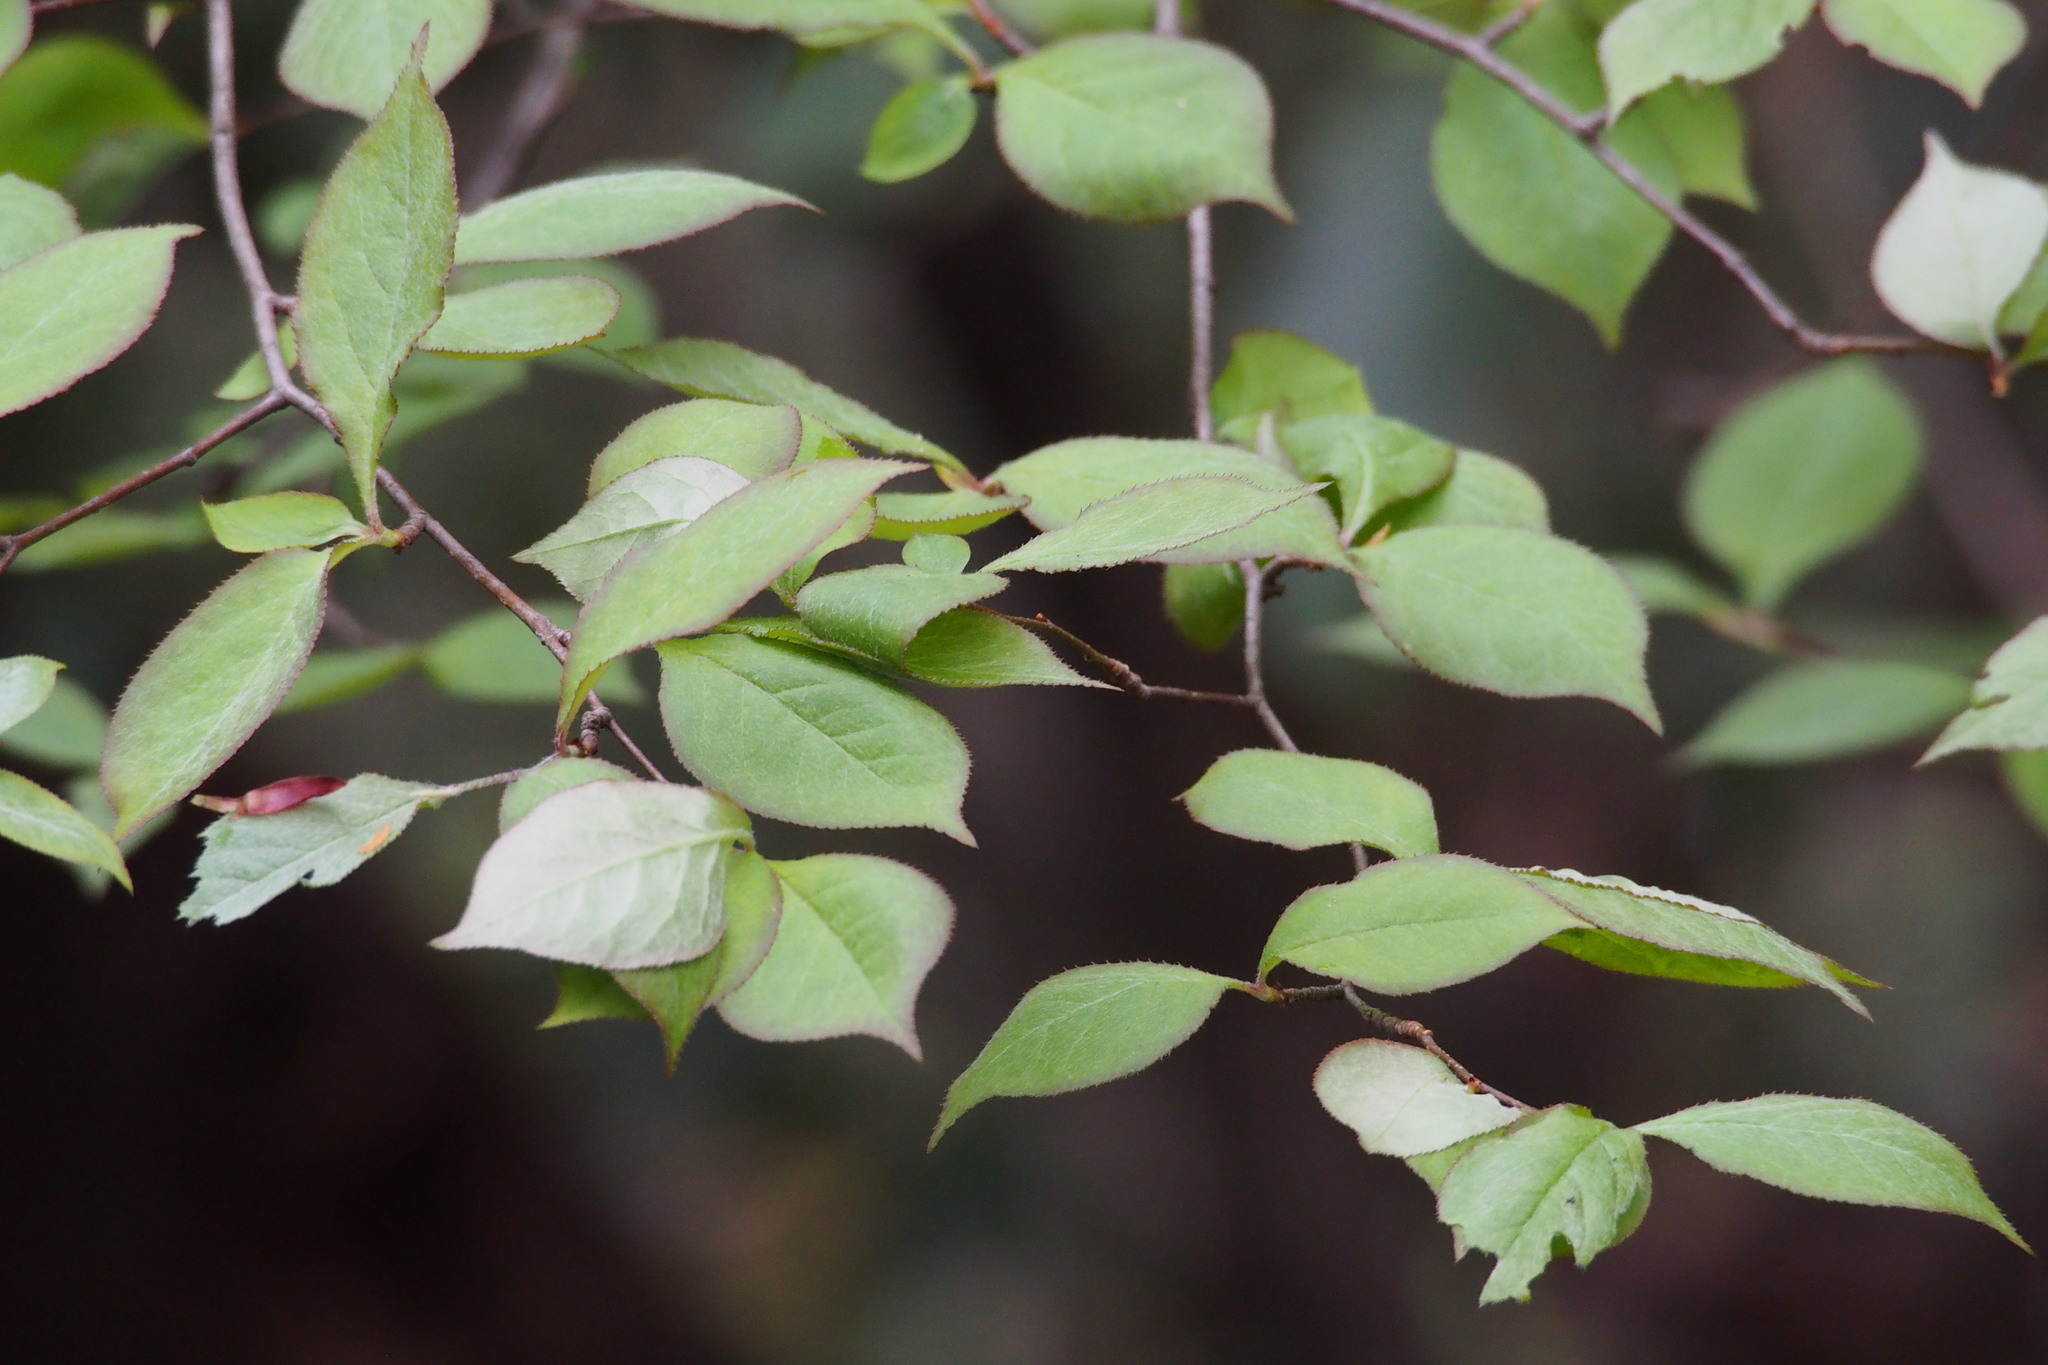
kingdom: Plantae
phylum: Tracheophyta
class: Magnoliopsida
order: Rosales
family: Rosaceae
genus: Pourthiaea
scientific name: Pourthiaea villosa
